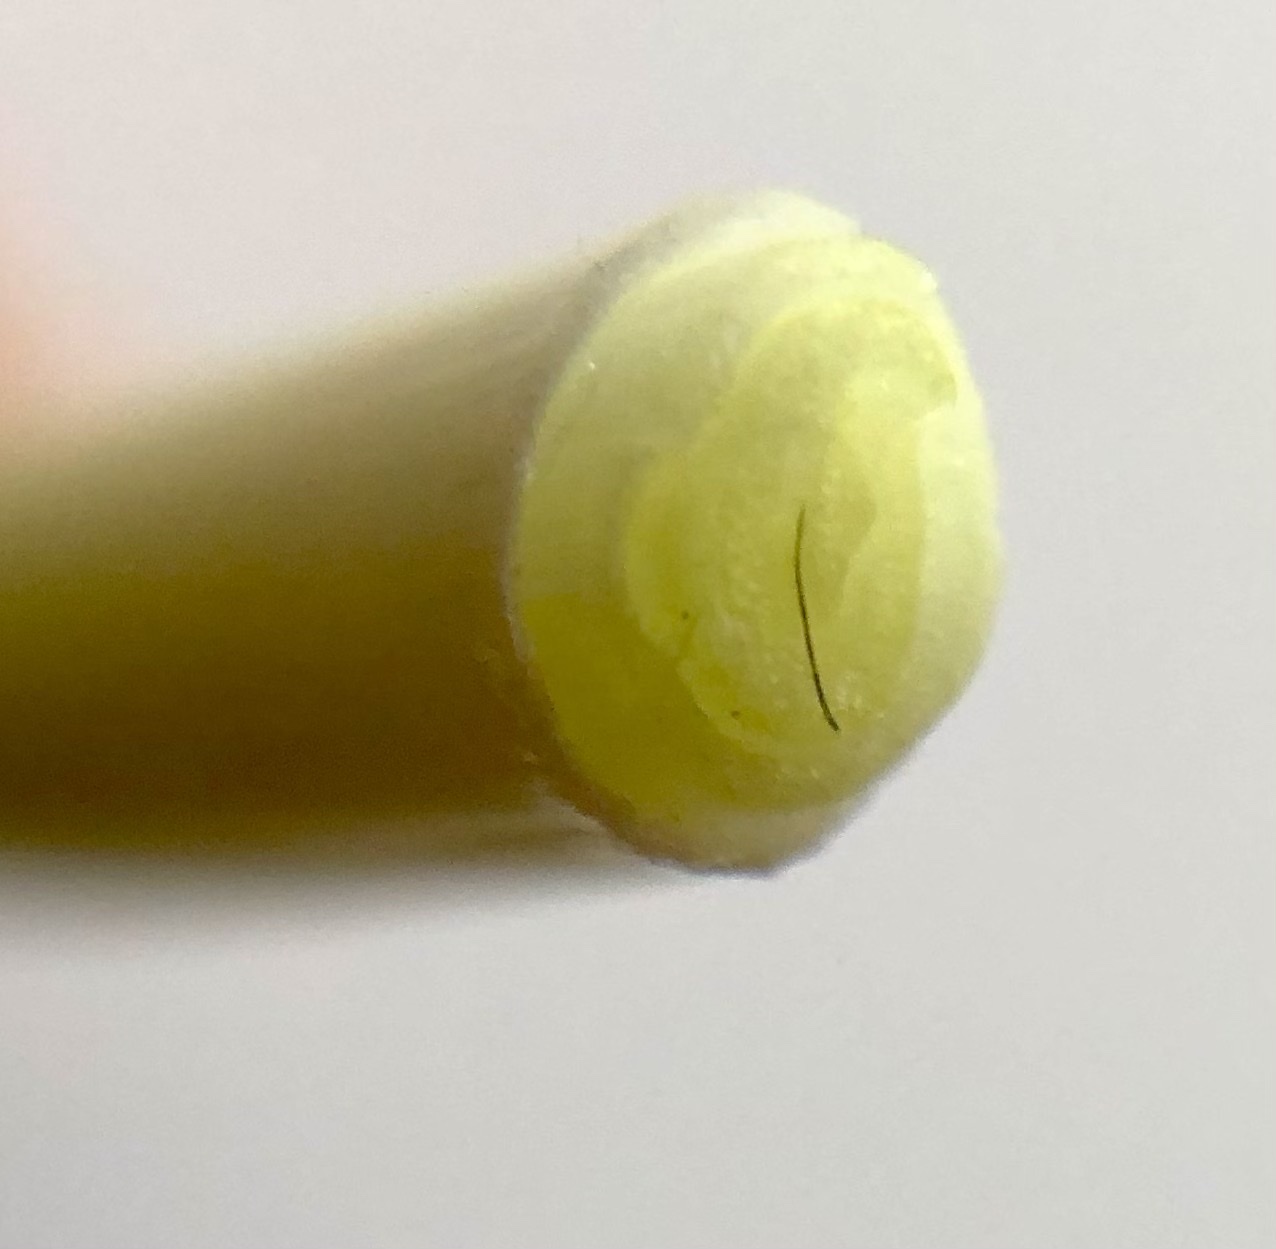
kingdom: Plantae
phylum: Tracheophyta
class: Liliopsida
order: Asparagales
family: Amaryllidaceae
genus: Allium
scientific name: Allium oleraceum
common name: Field garlic
